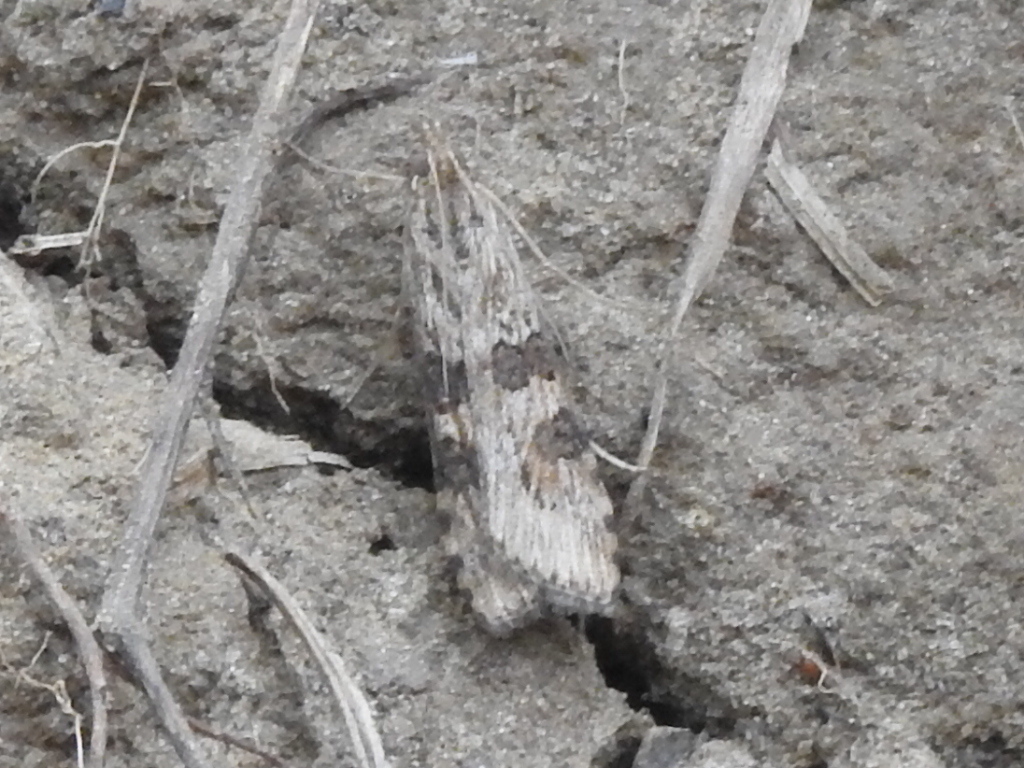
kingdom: Animalia
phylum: Arthropoda
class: Insecta
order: Lepidoptera
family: Crambidae
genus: Nomophila
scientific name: Nomophila nearctica
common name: American rush veneer
